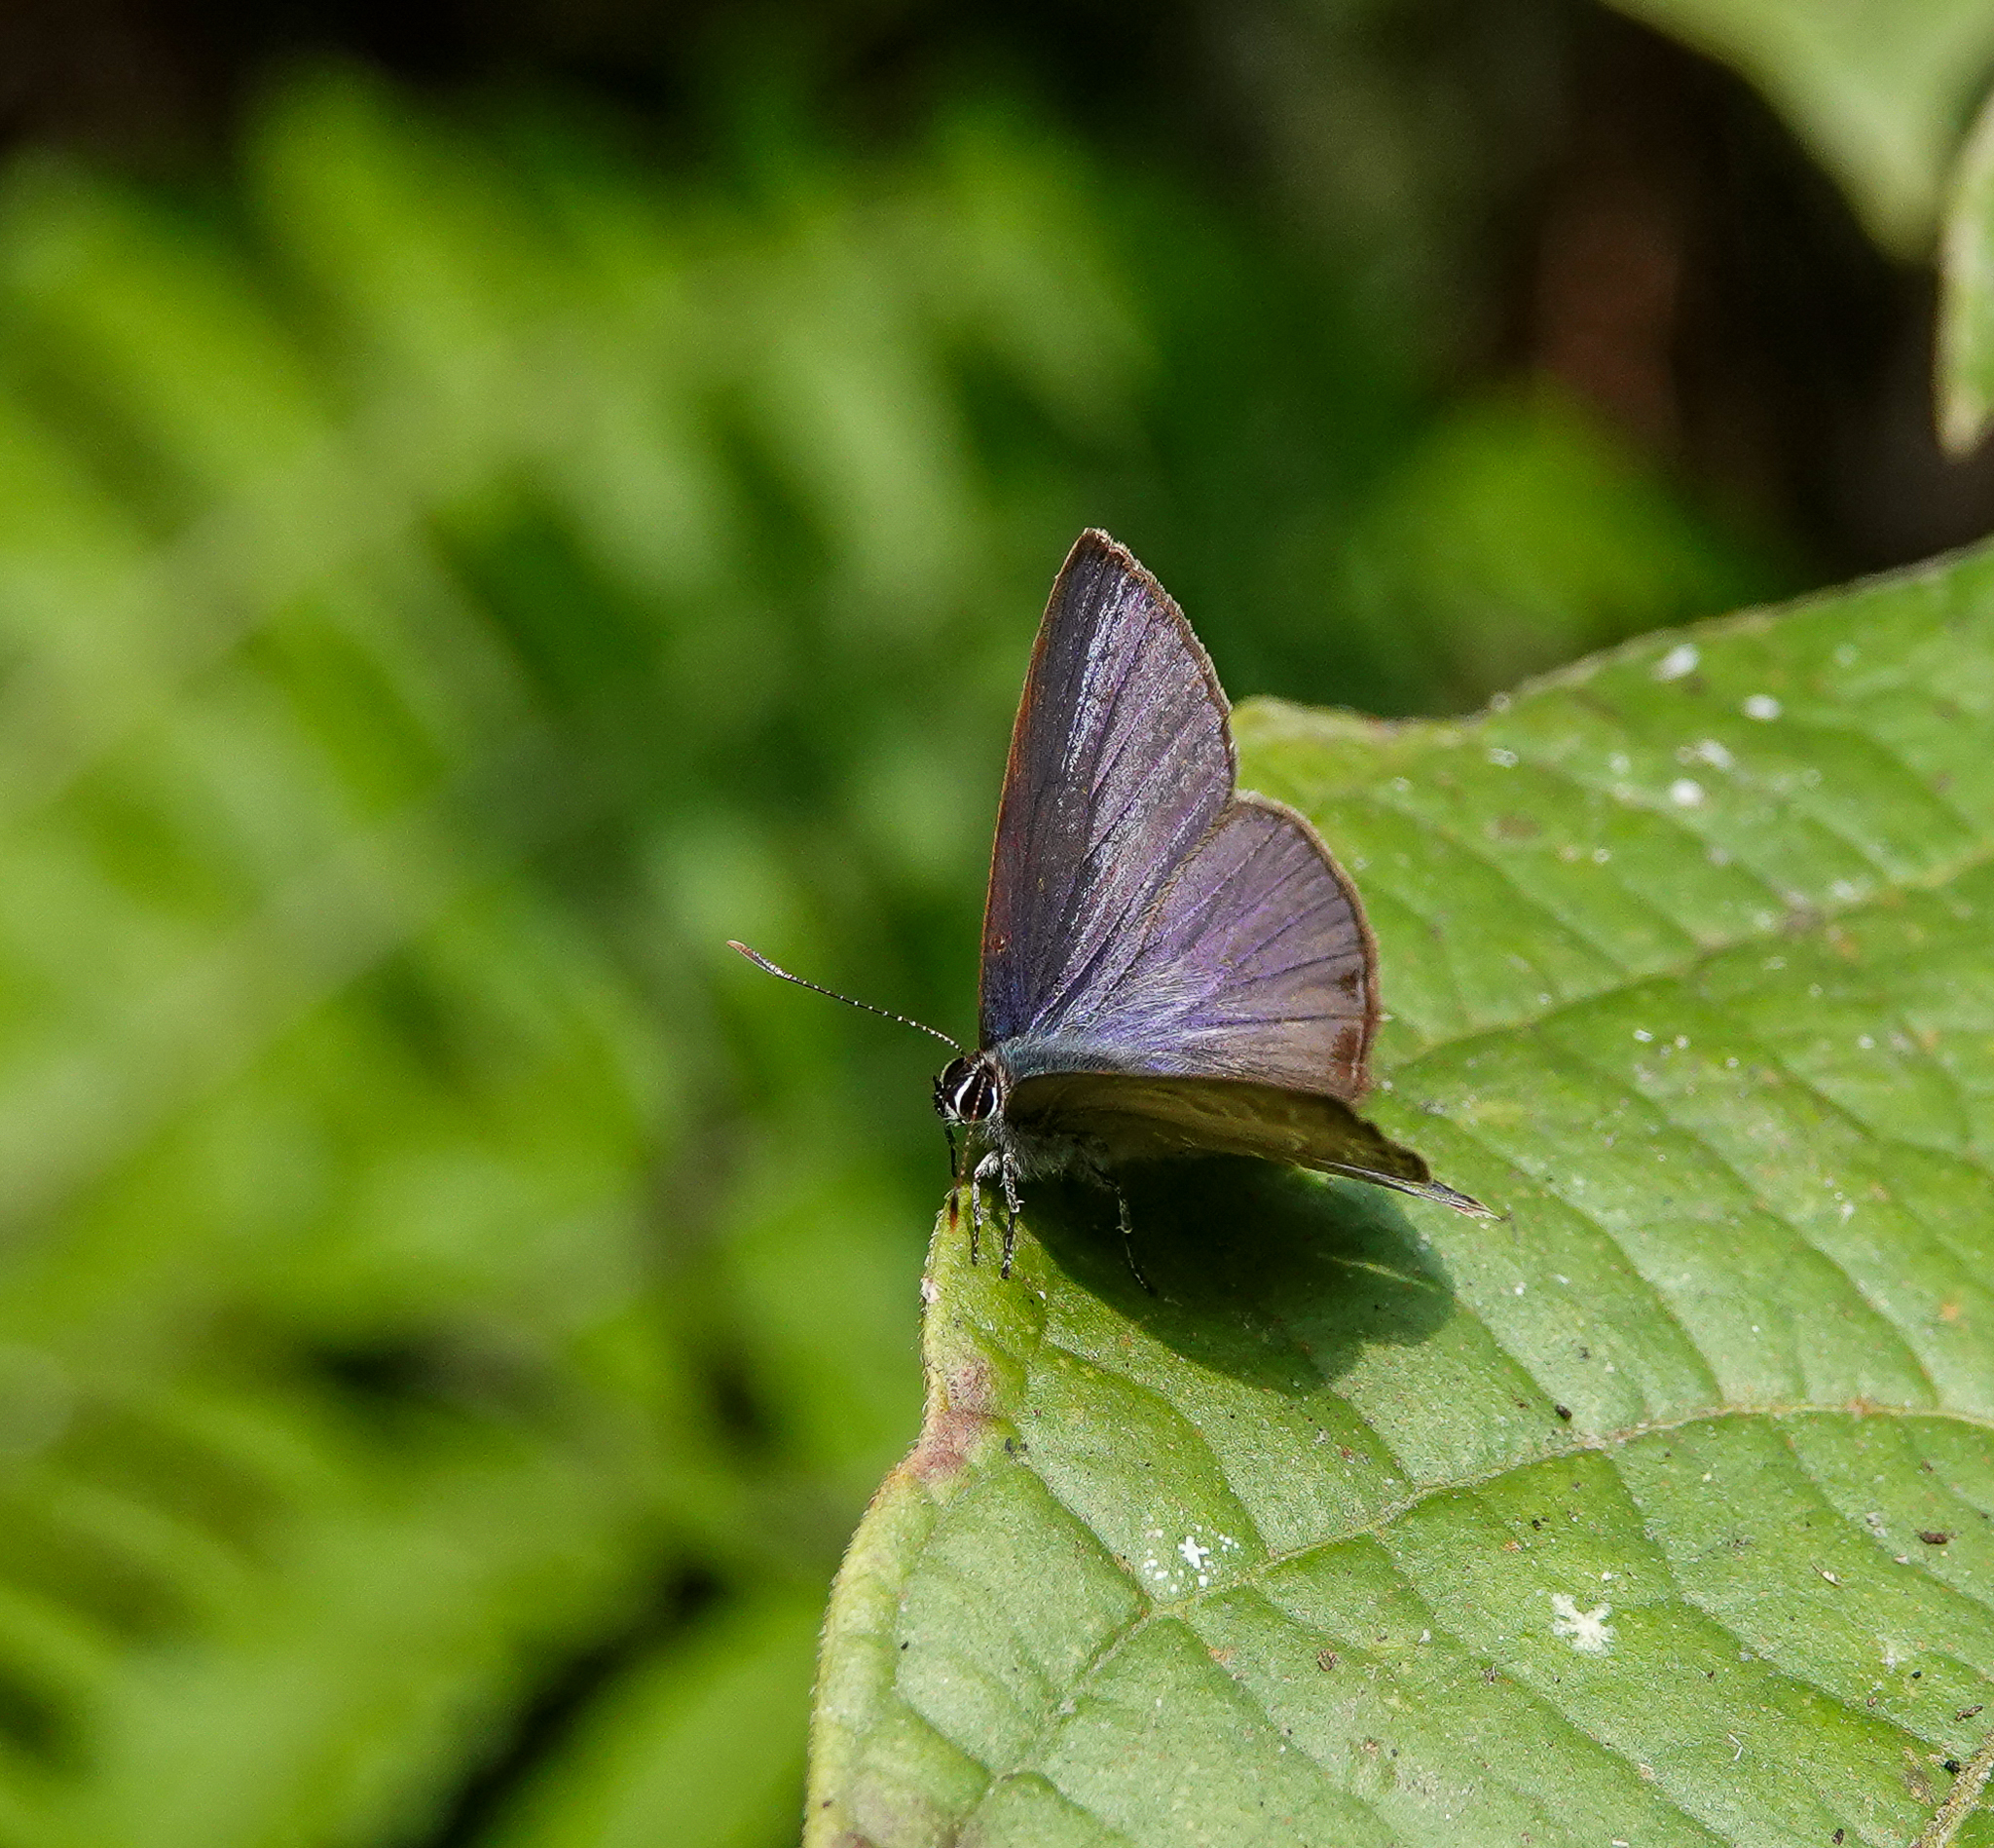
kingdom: Animalia
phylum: Arthropoda
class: Insecta
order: Lepidoptera
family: Lycaenidae
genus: Anthene
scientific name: Anthene emolus
